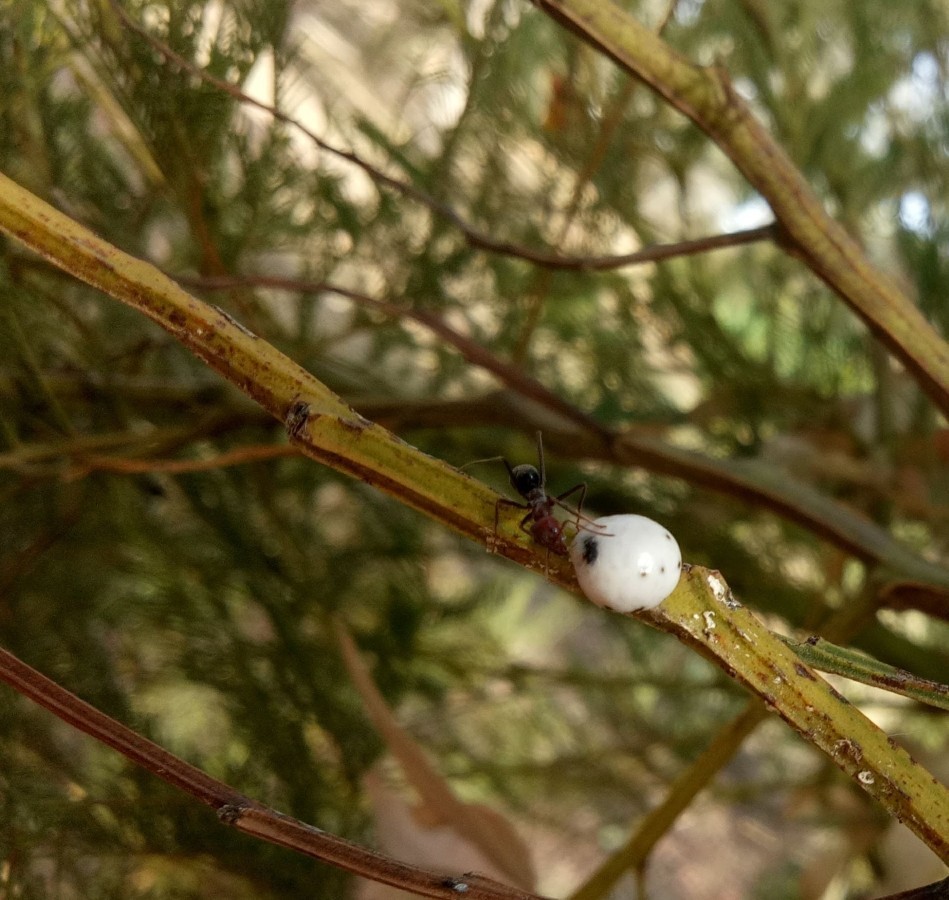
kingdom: Animalia
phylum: Arthropoda
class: Insecta
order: Hymenoptera
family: Formicidae
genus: Iridomyrmex
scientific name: Iridomyrmex purpureus
